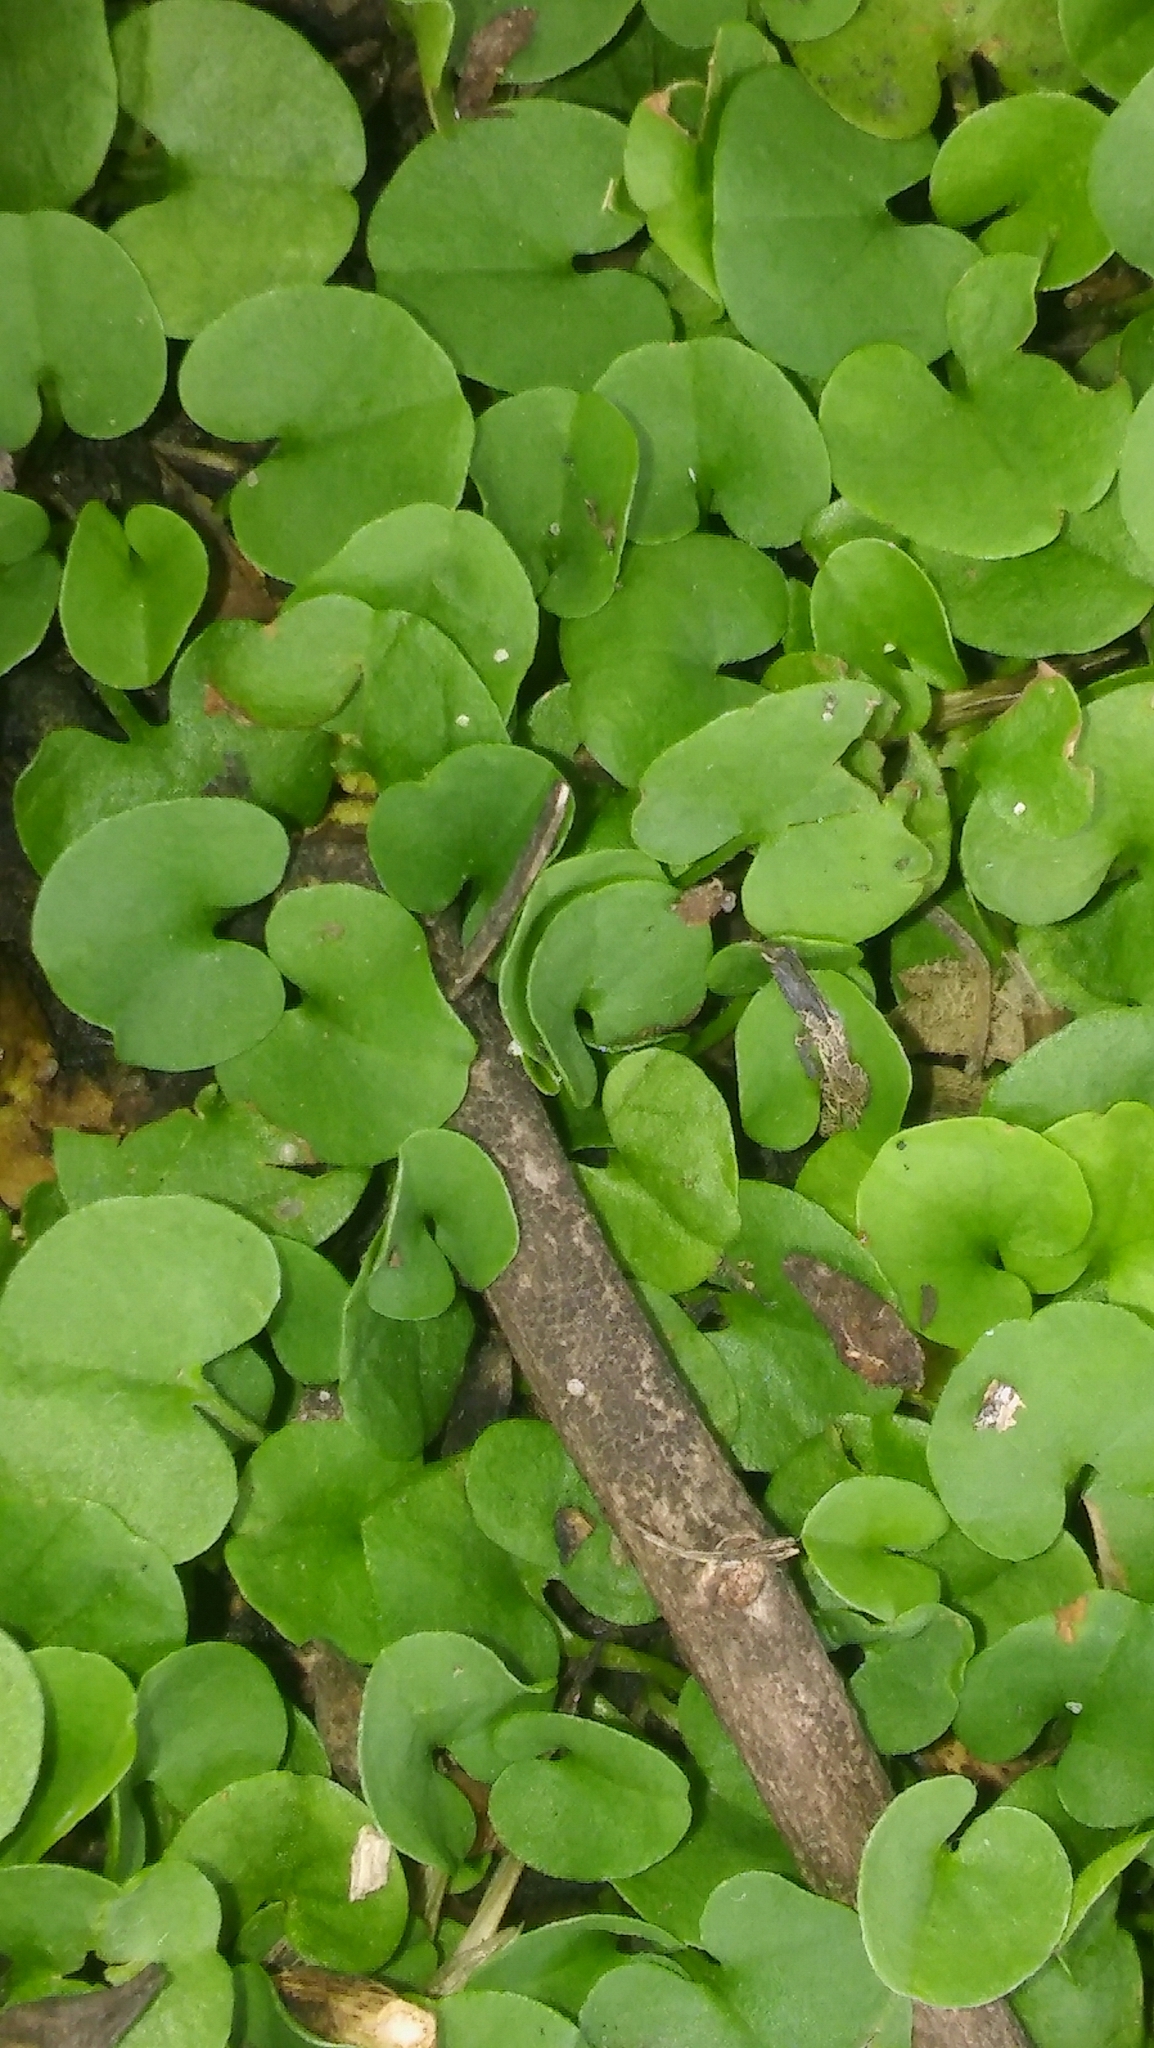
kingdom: Plantae
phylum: Tracheophyta
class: Magnoliopsida
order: Solanales
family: Convolvulaceae
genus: Dichondra
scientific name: Dichondra repens
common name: Kidneyweed
